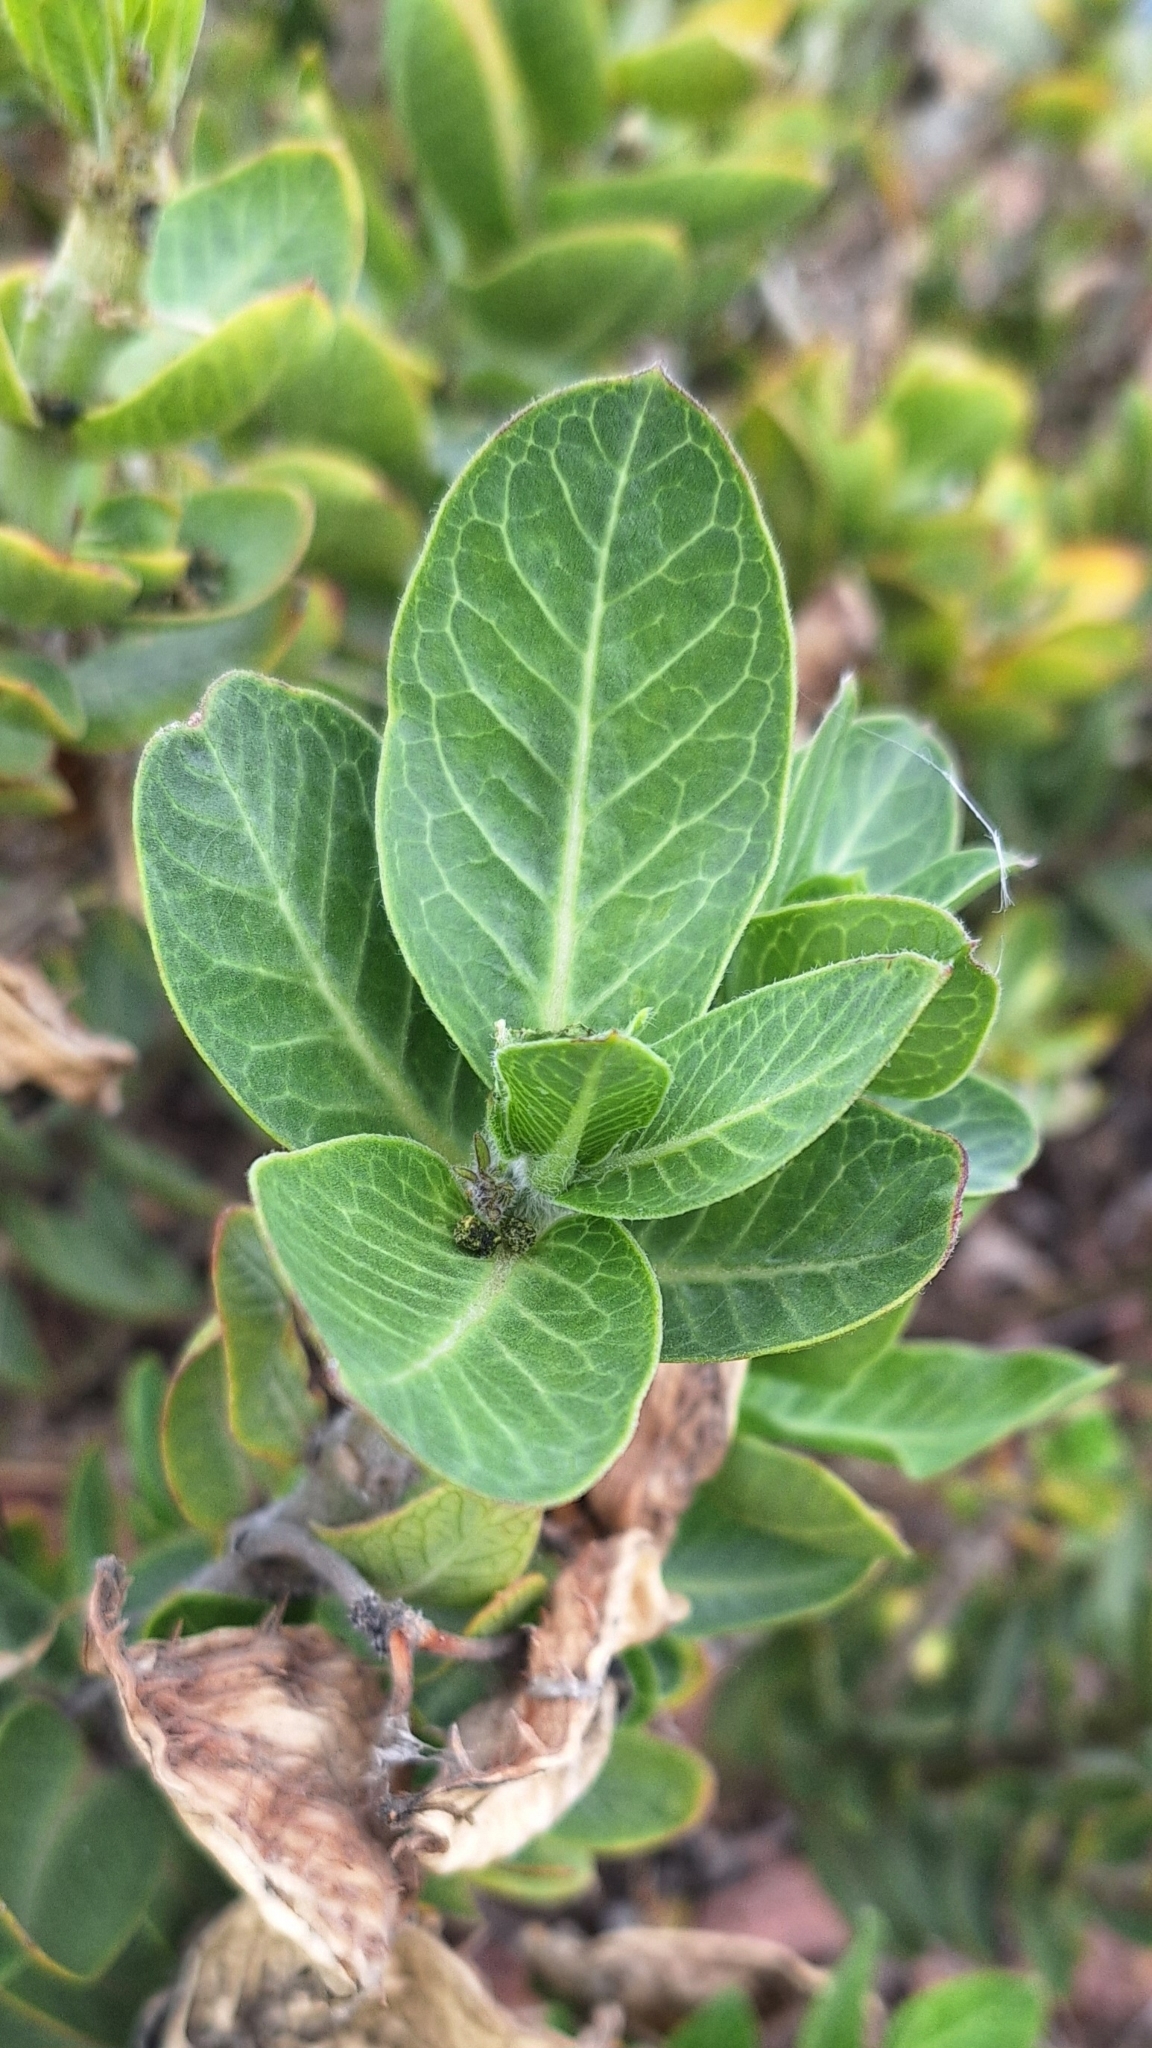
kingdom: Plantae
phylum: Tracheophyta
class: Magnoliopsida
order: Gentianales
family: Apocynaceae
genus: Gomphocarpus
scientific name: Gomphocarpus cancellatus
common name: Wild cotton
